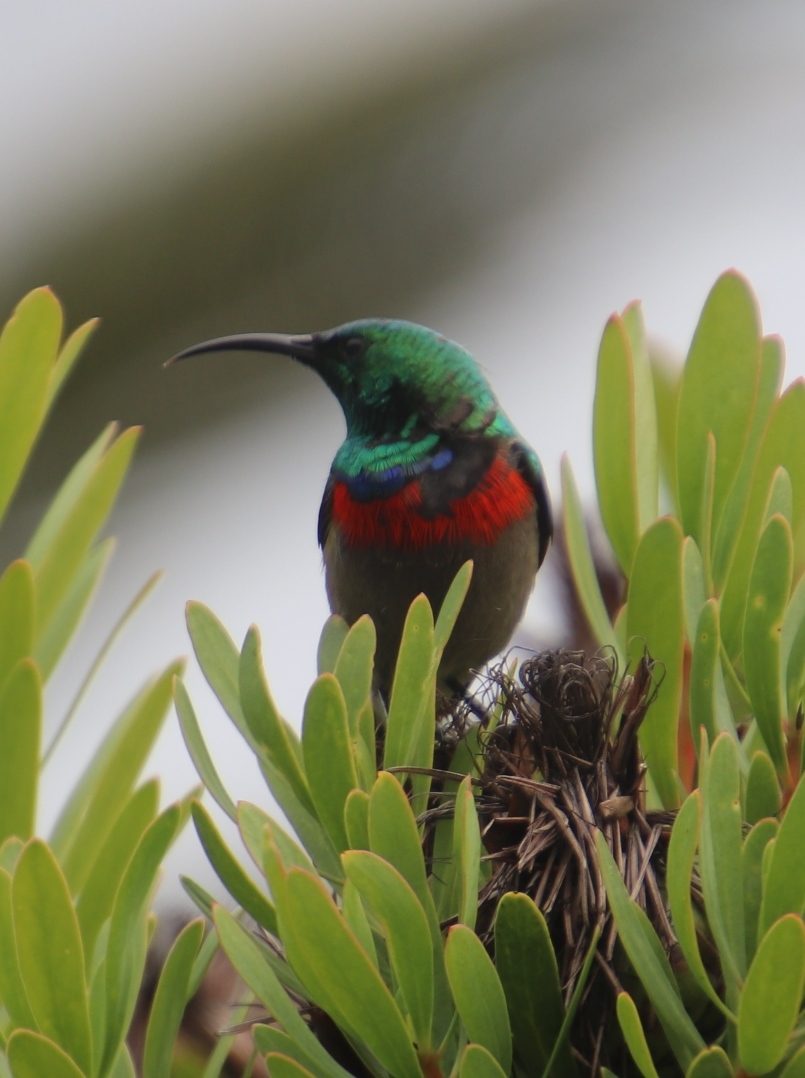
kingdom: Animalia
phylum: Chordata
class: Aves
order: Passeriformes
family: Nectariniidae
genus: Cinnyris
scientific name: Cinnyris chalybeus
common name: Southern double-collared sunbird
